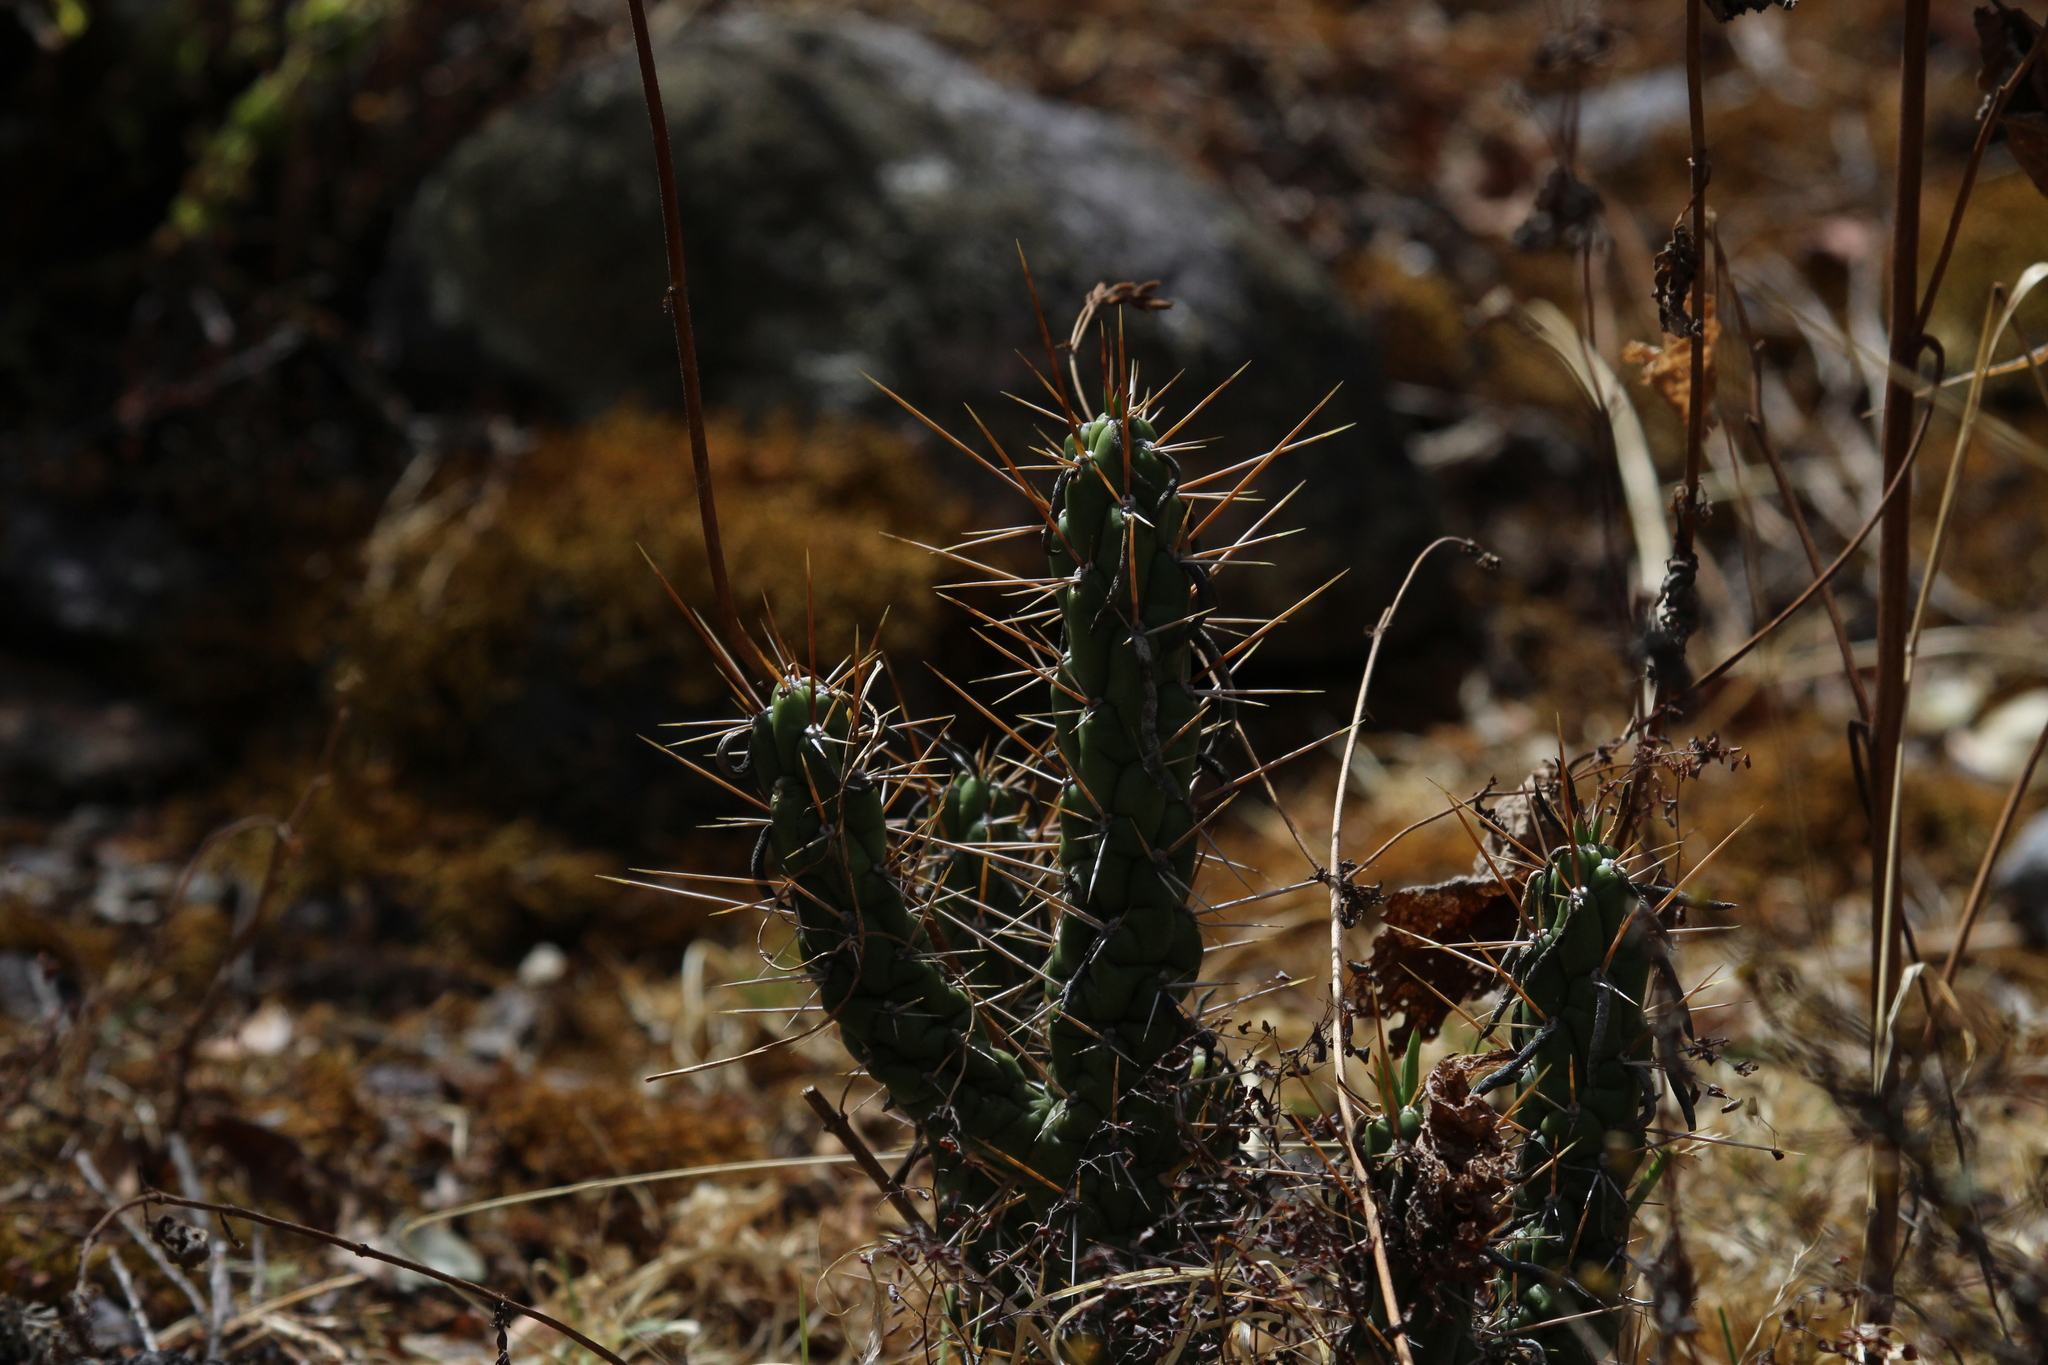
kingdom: Plantae
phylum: Tracheophyta
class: Magnoliopsida
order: Caryophyllales
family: Cactaceae
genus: Austrocylindropuntia
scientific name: Austrocylindropuntia subulata
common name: Eve's needle cactus
